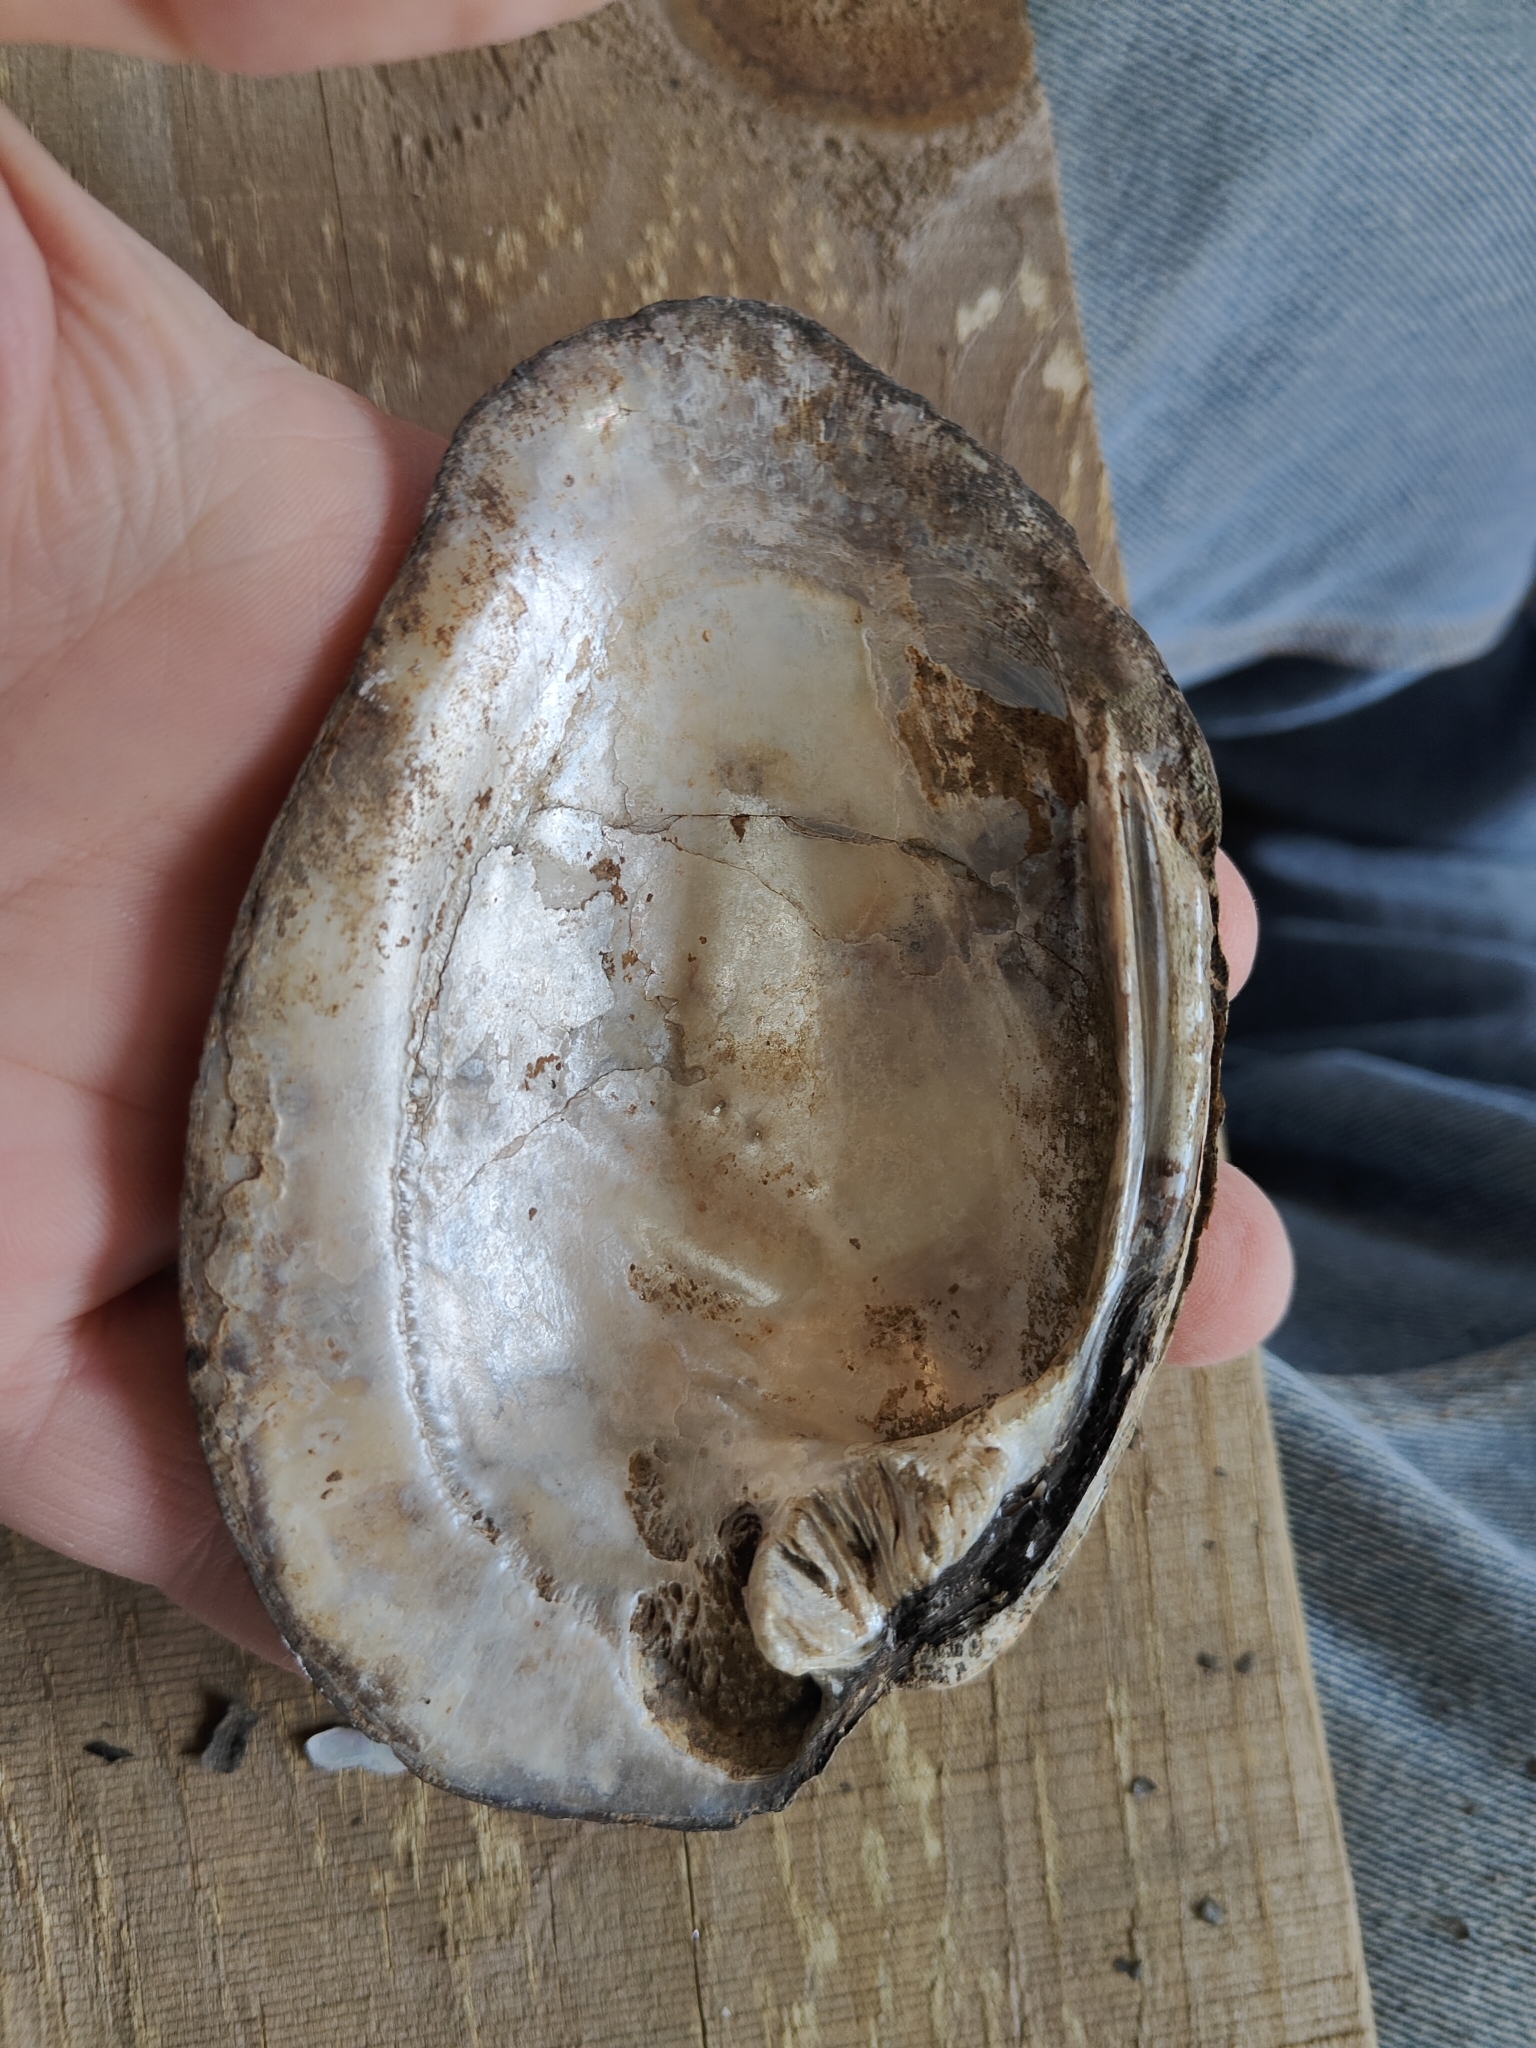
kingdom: Animalia
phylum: Mollusca
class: Bivalvia
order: Unionida
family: Unionidae
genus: Amblema
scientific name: Amblema plicata
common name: Threeridge
